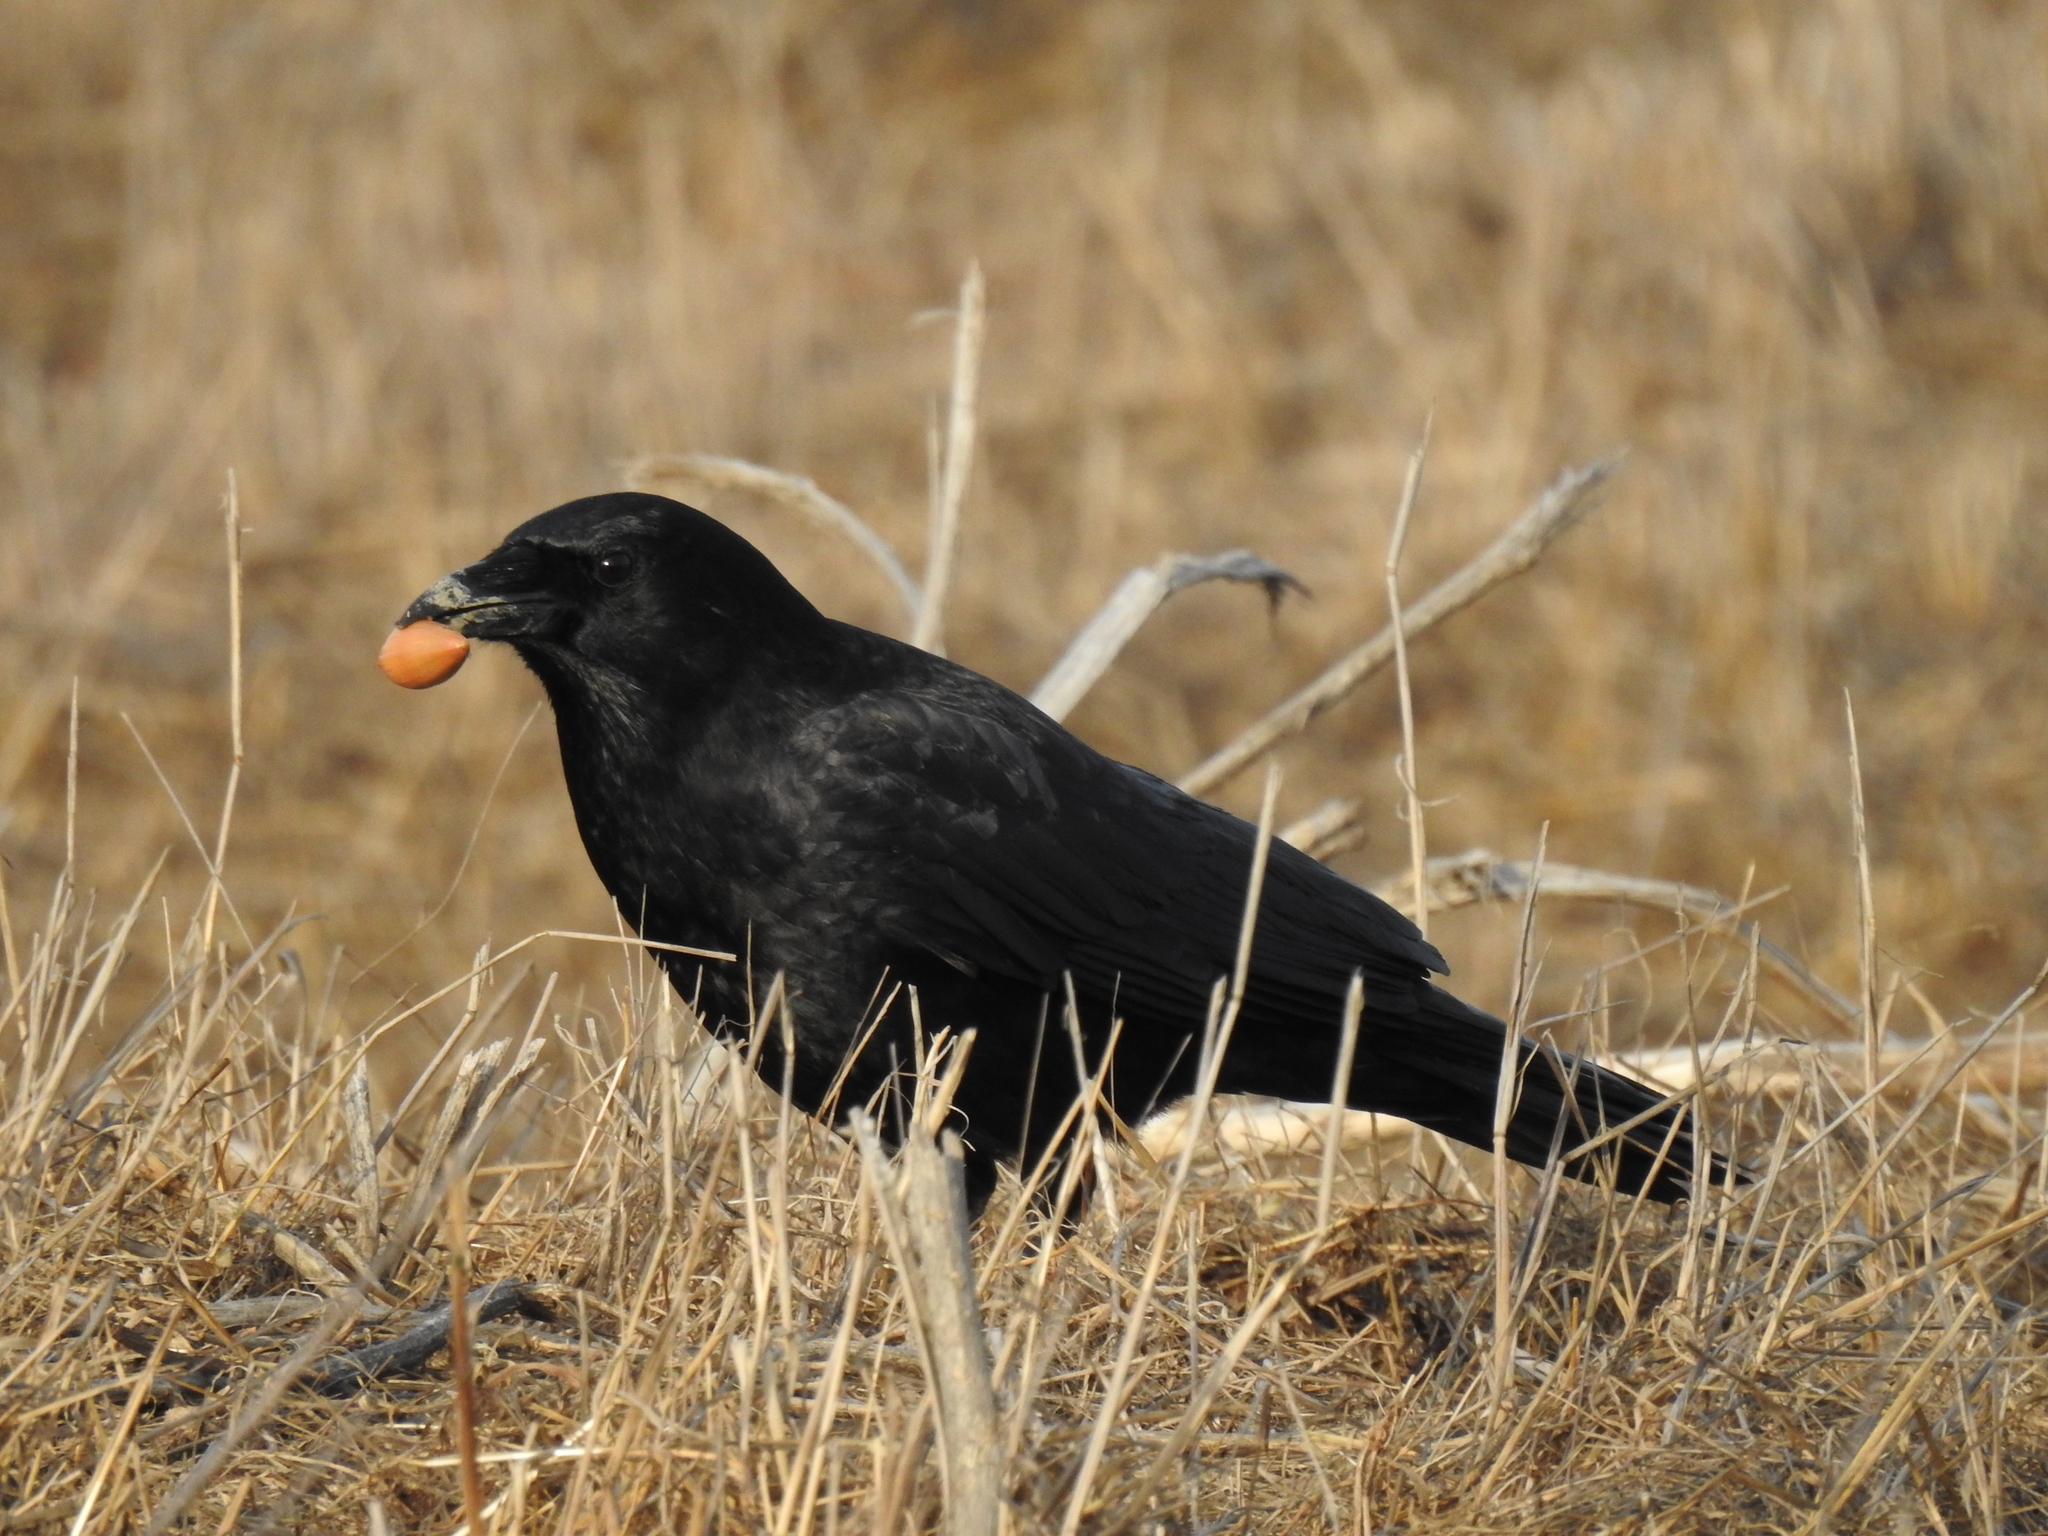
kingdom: Animalia
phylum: Chordata
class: Aves
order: Passeriformes
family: Corvidae
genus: Corvus
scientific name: Corvus brachyrhynchos
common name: American crow
